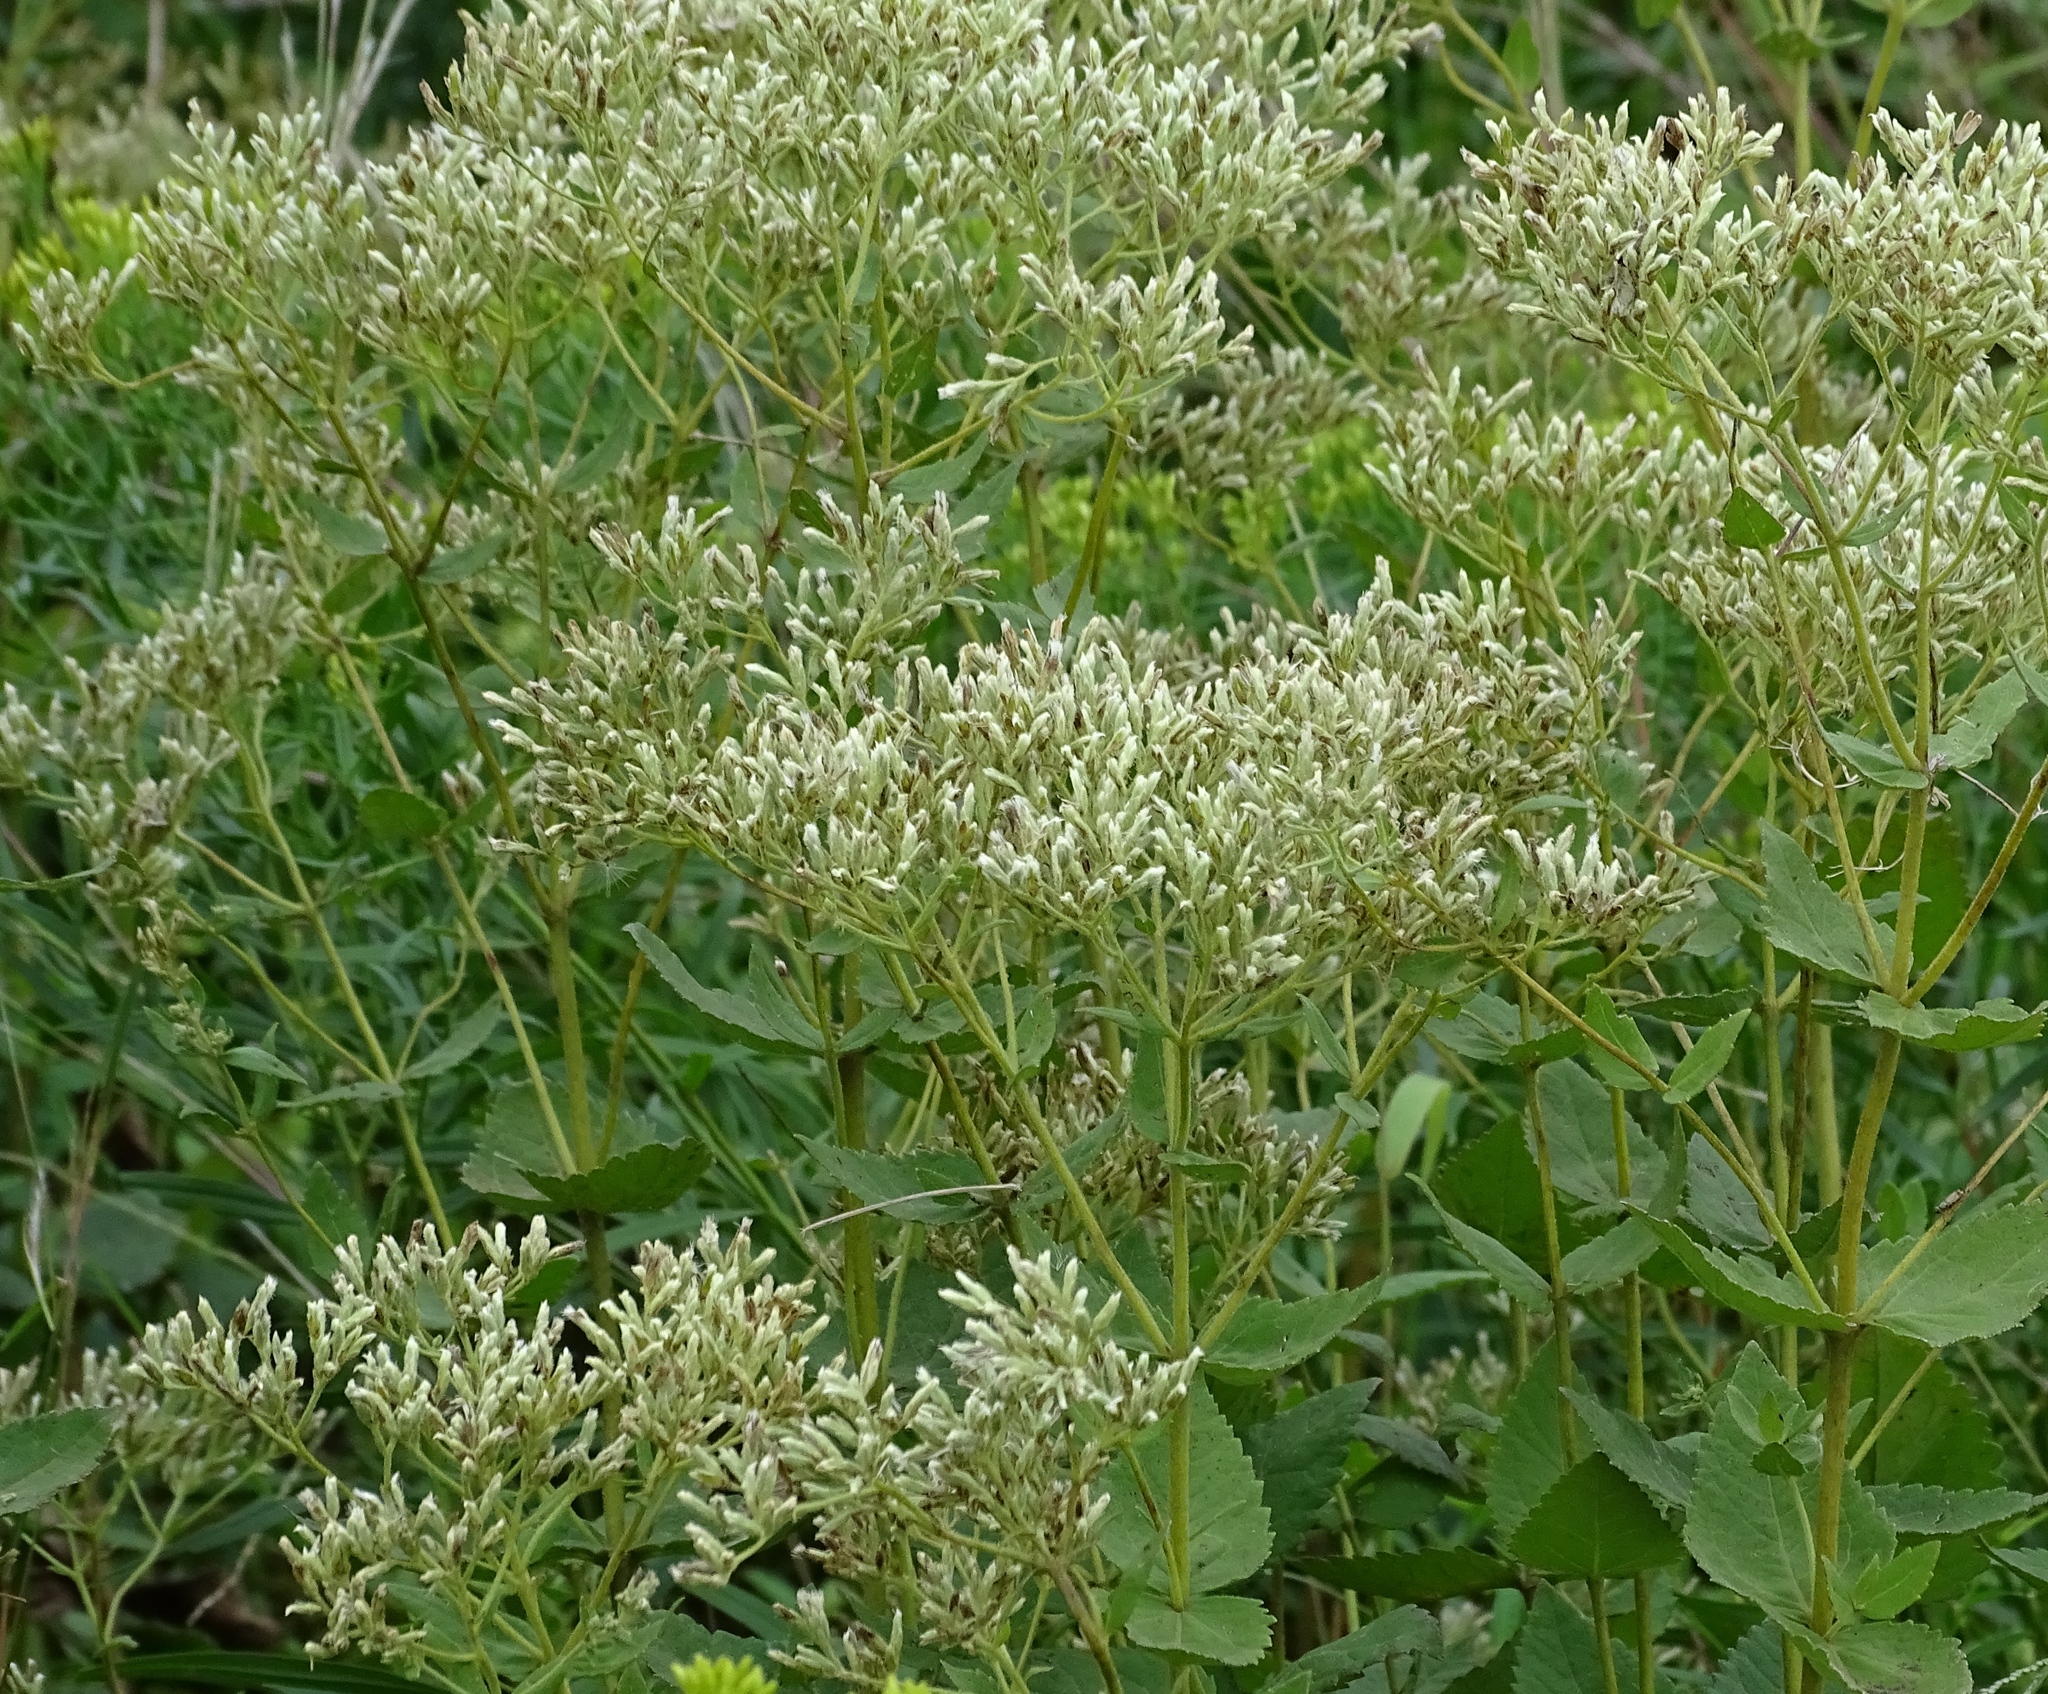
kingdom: Plantae
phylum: Tracheophyta
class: Magnoliopsida
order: Asterales
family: Asteraceae
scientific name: Asteraceae
